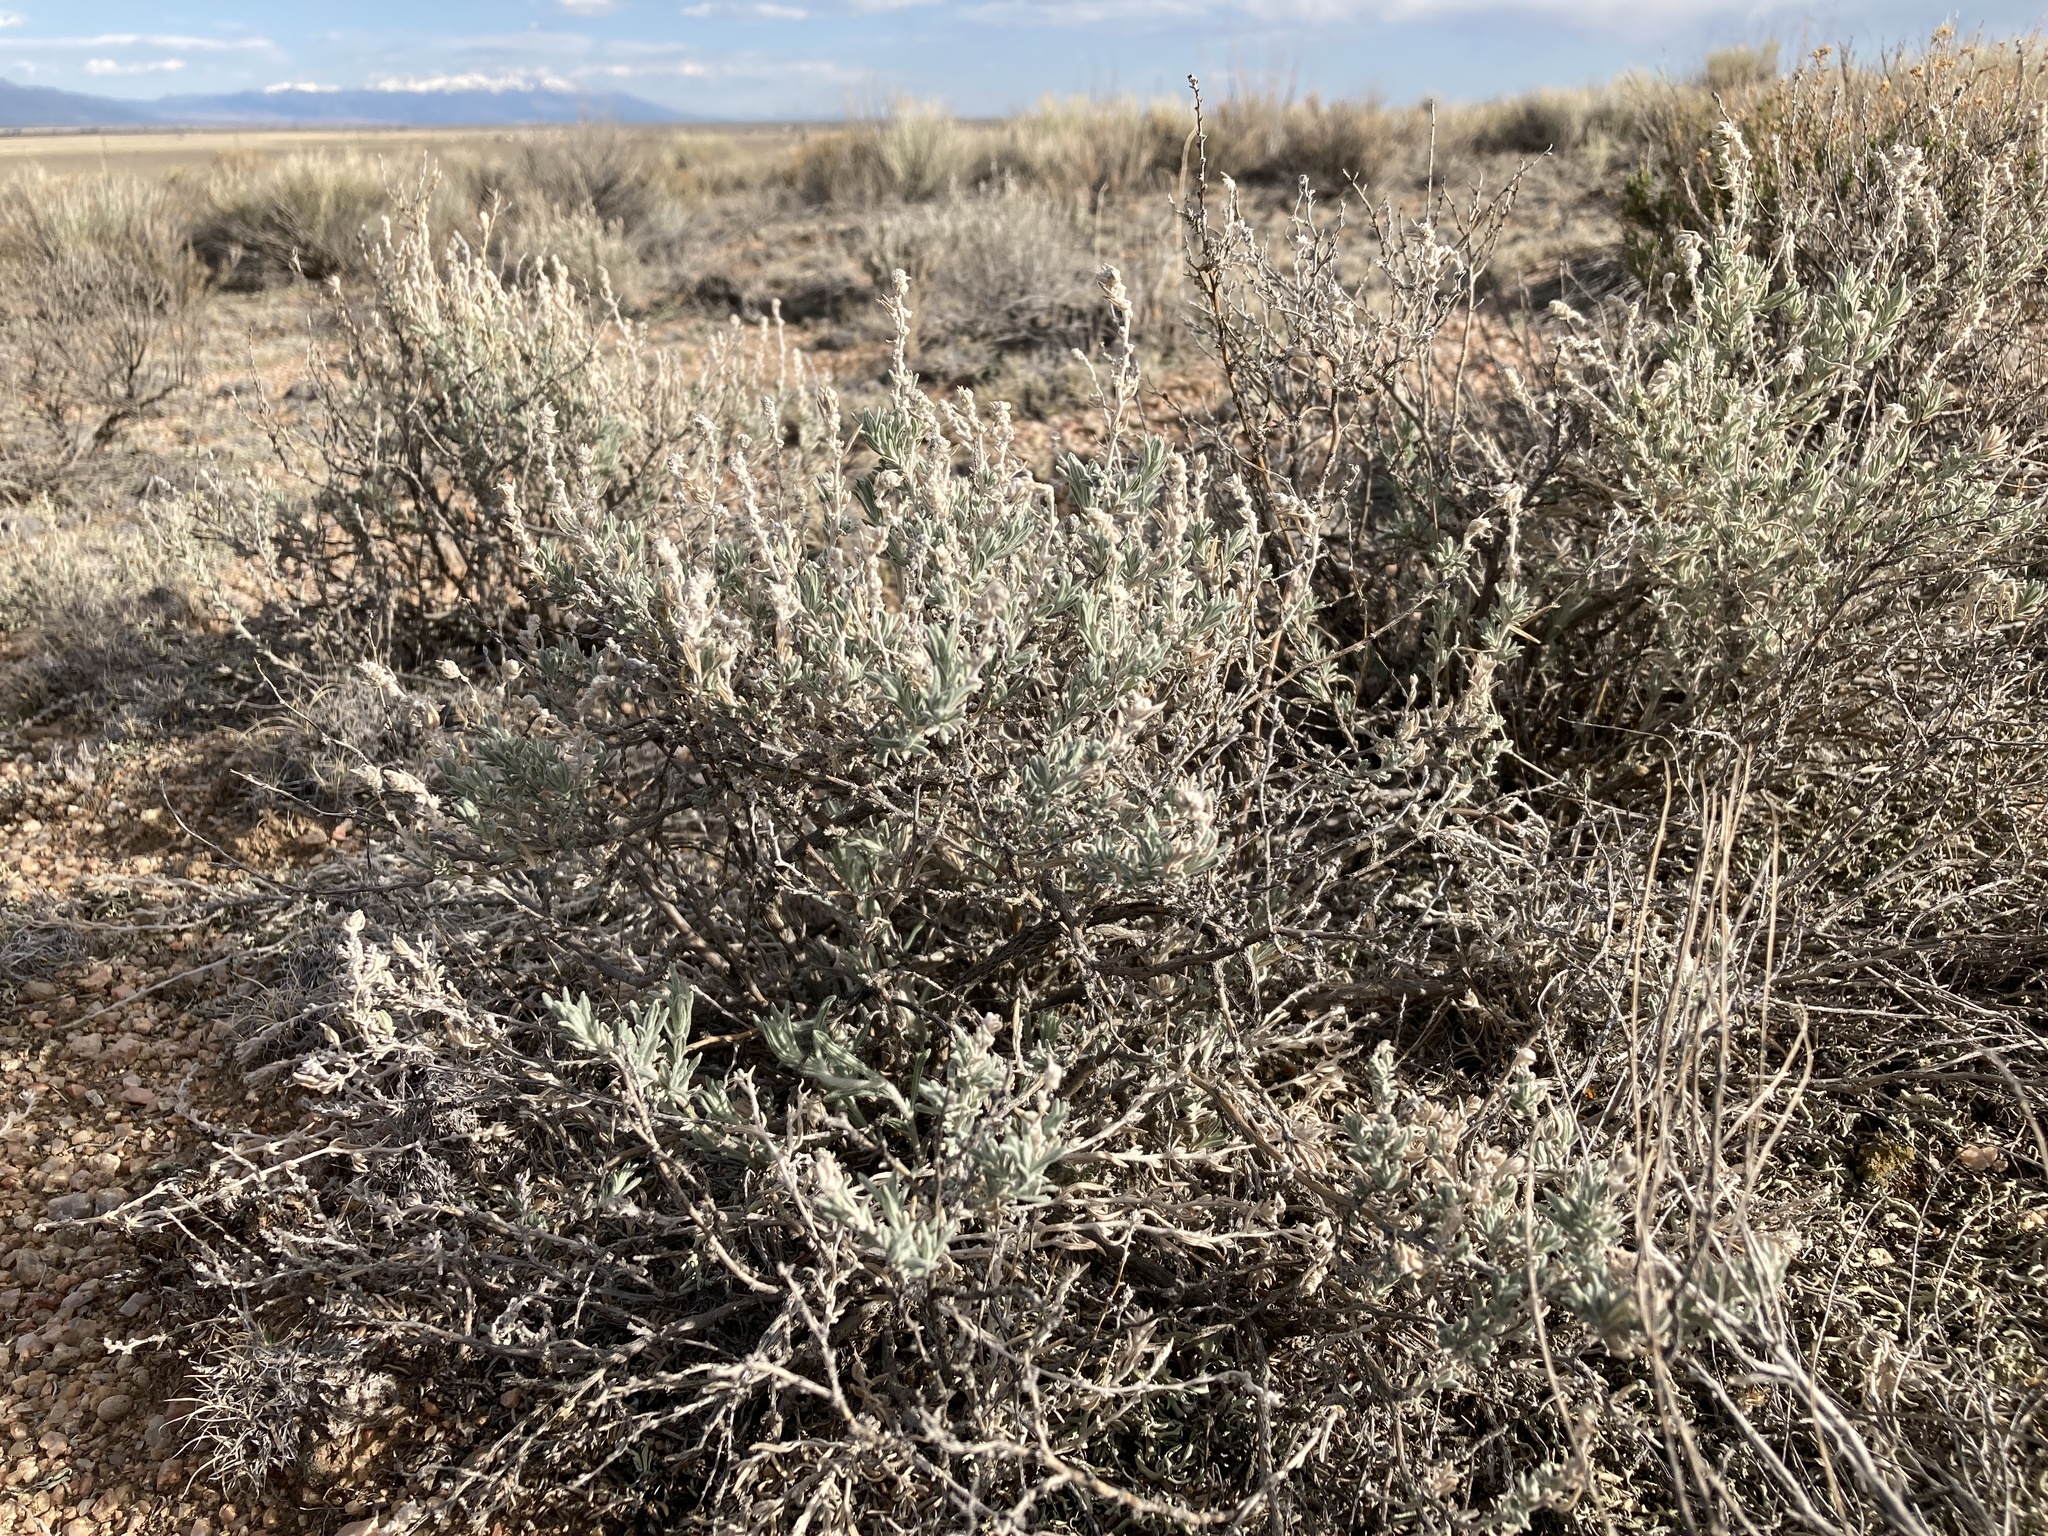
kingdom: Plantae
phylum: Tracheophyta
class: Magnoliopsida
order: Caryophyllales
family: Amaranthaceae
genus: Krascheninnikovia
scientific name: Krascheninnikovia lanata
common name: Winterfat
